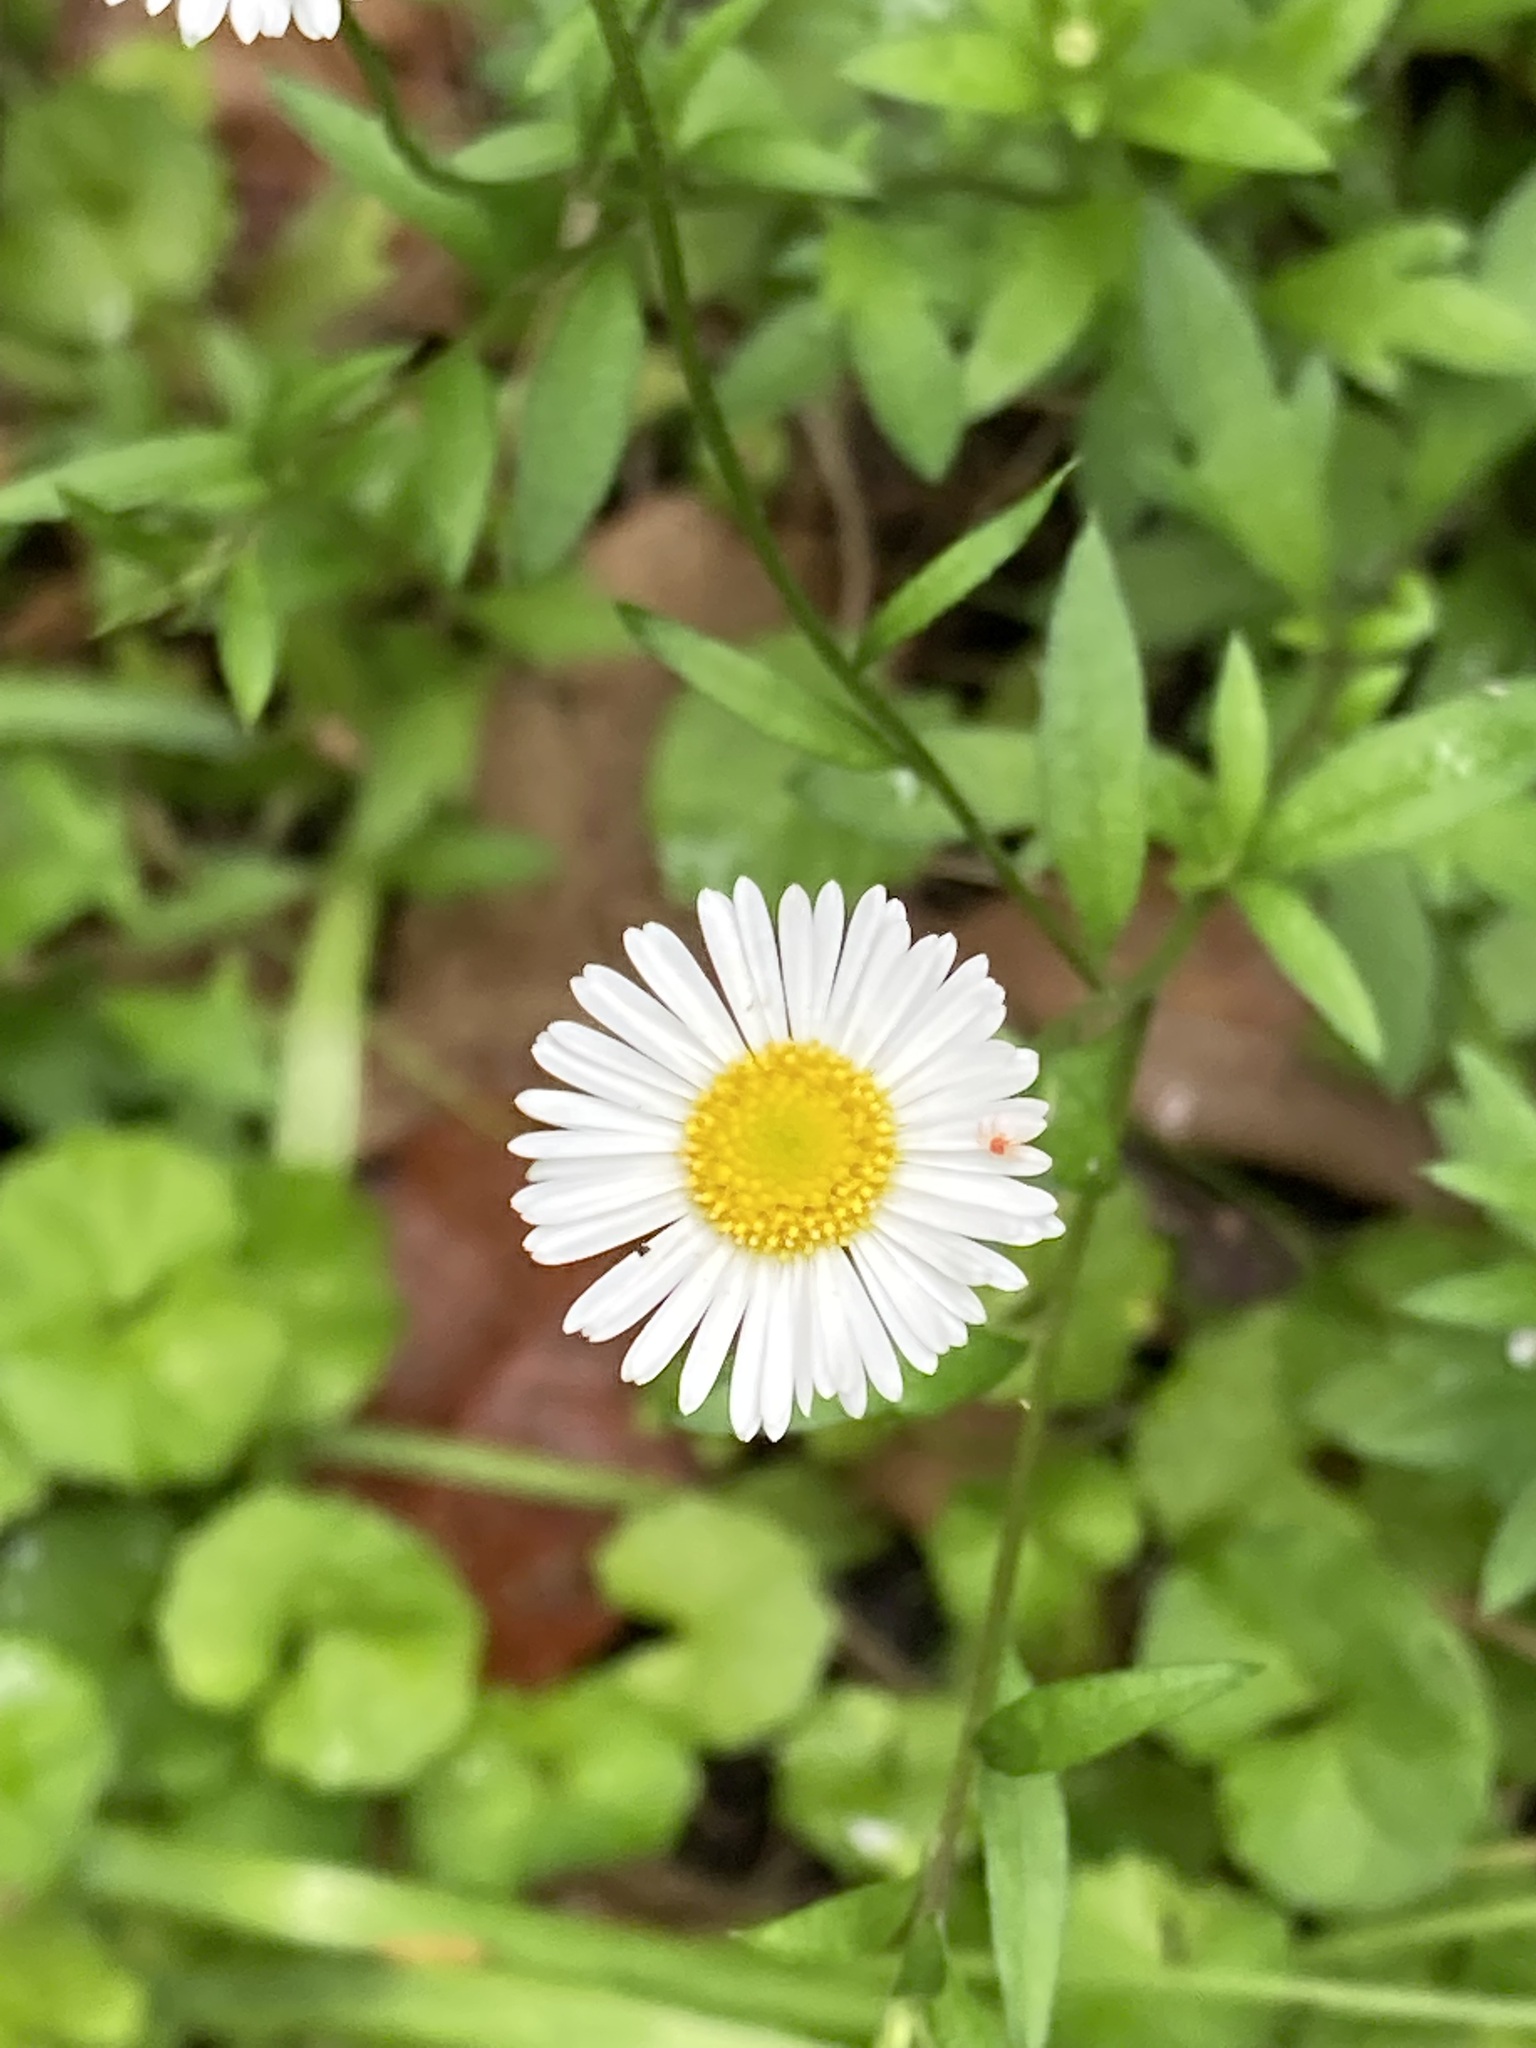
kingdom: Plantae
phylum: Tracheophyta
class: Magnoliopsida
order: Asterales
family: Asteraceae
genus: Erigeron
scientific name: Erigeron karvinskianus
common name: Mexican fleabane
